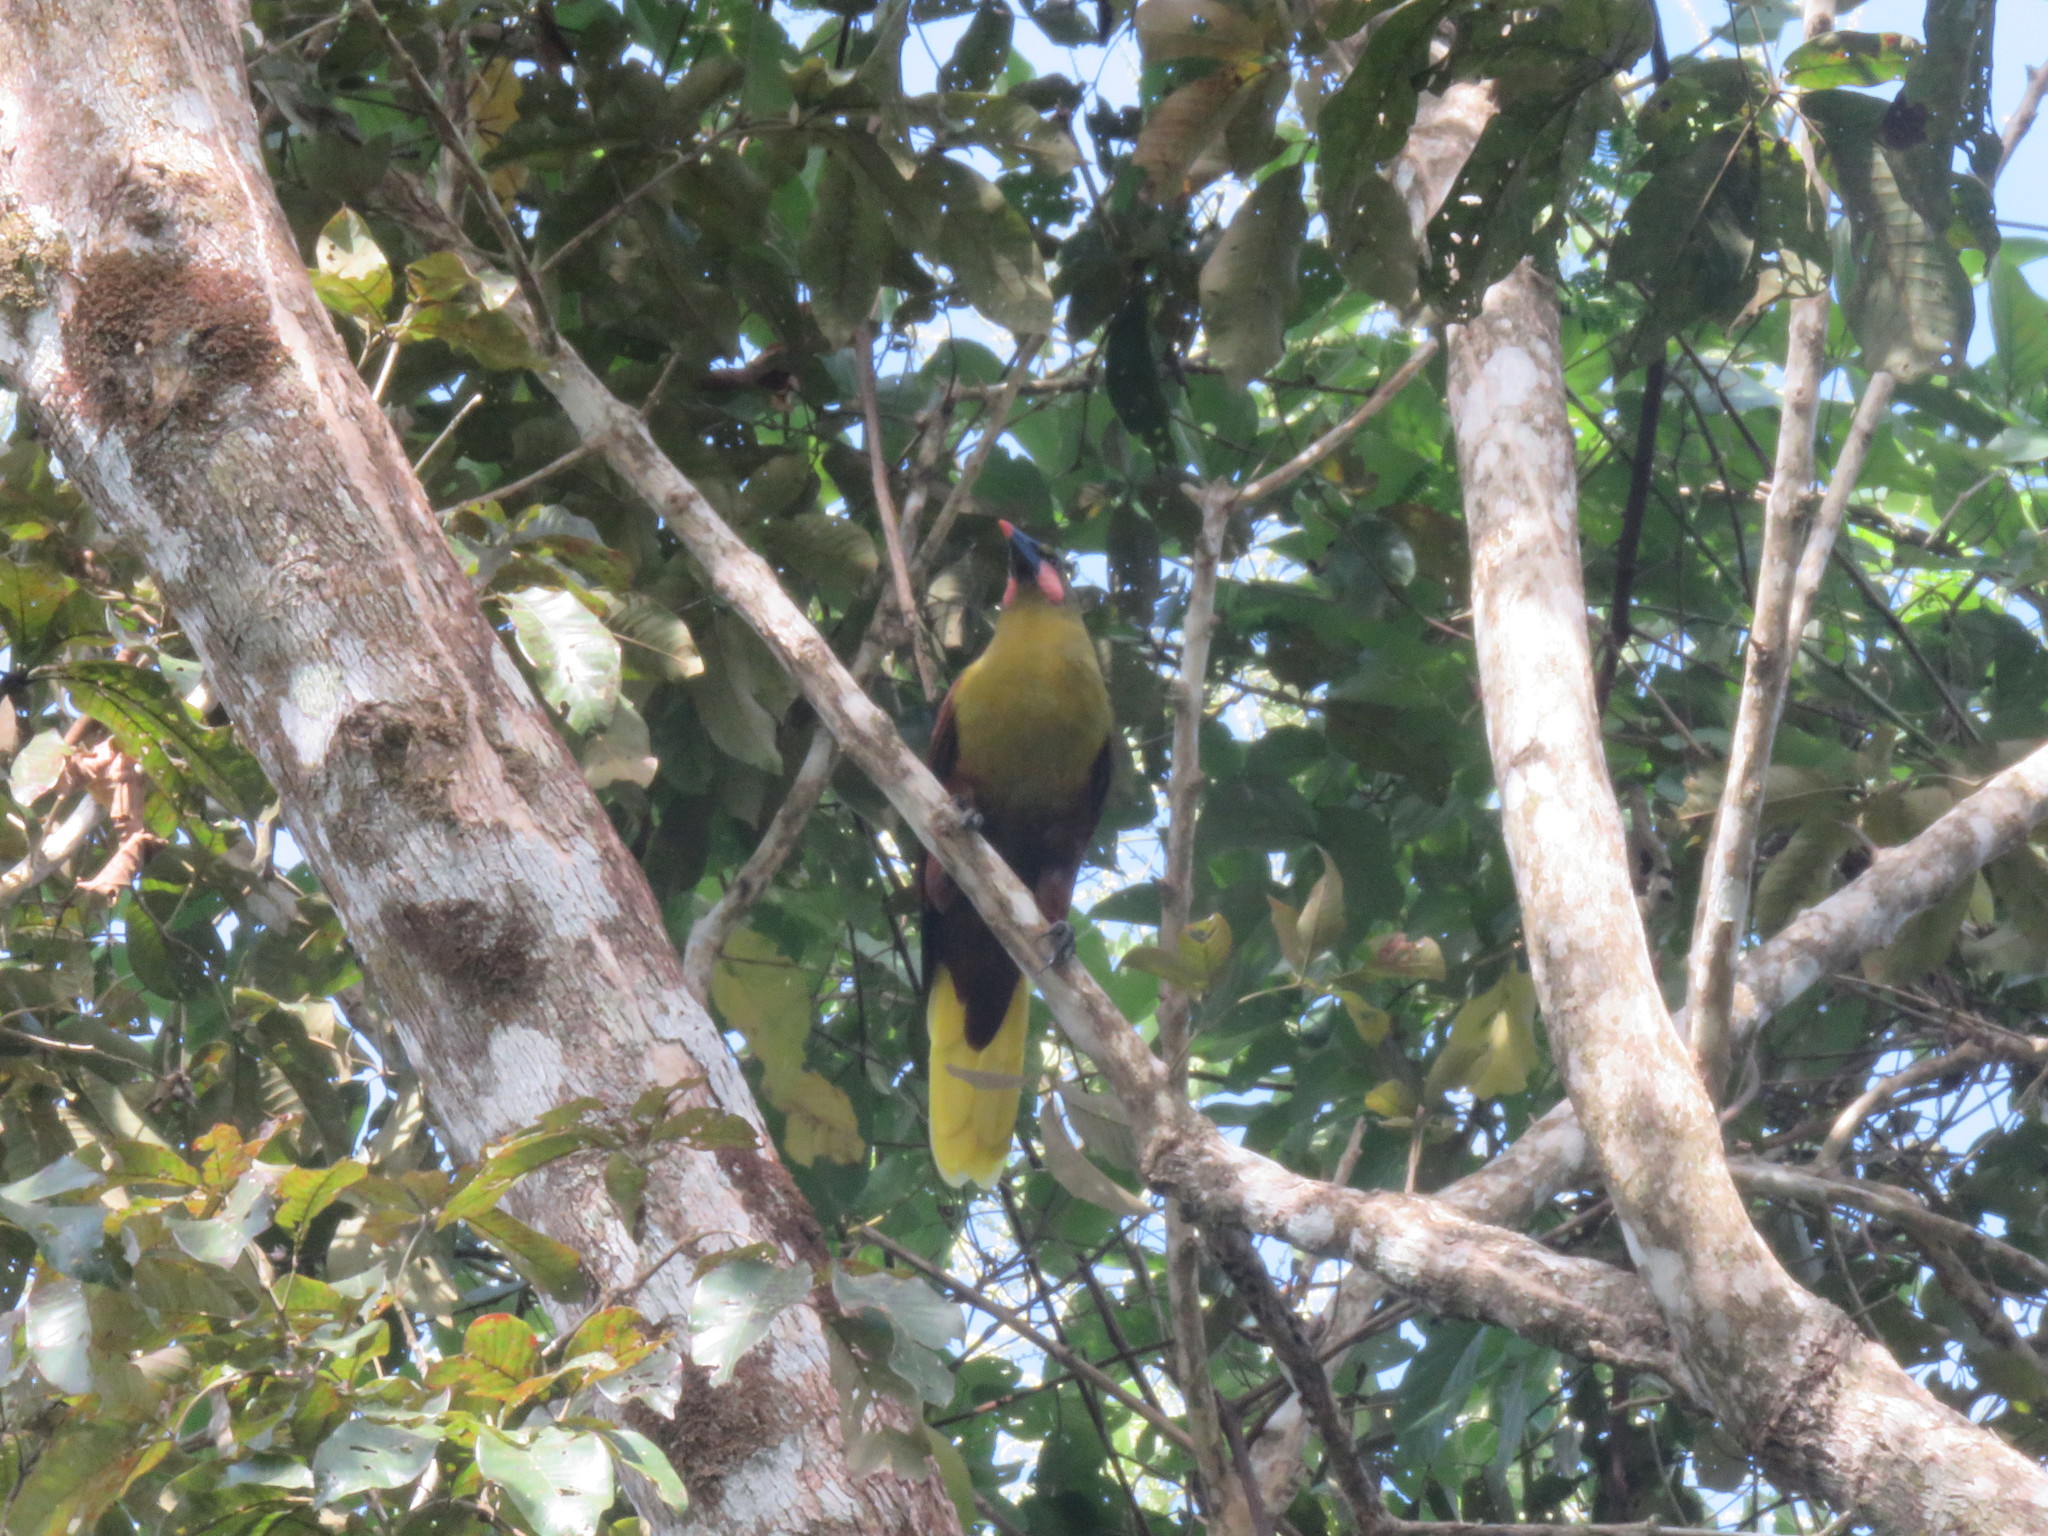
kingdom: Animalia
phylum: Chordata
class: Aves
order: Passeriformes
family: Icteridae
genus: Psarocolius
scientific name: Psarocolius bifasciatus
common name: Olive oropendola
